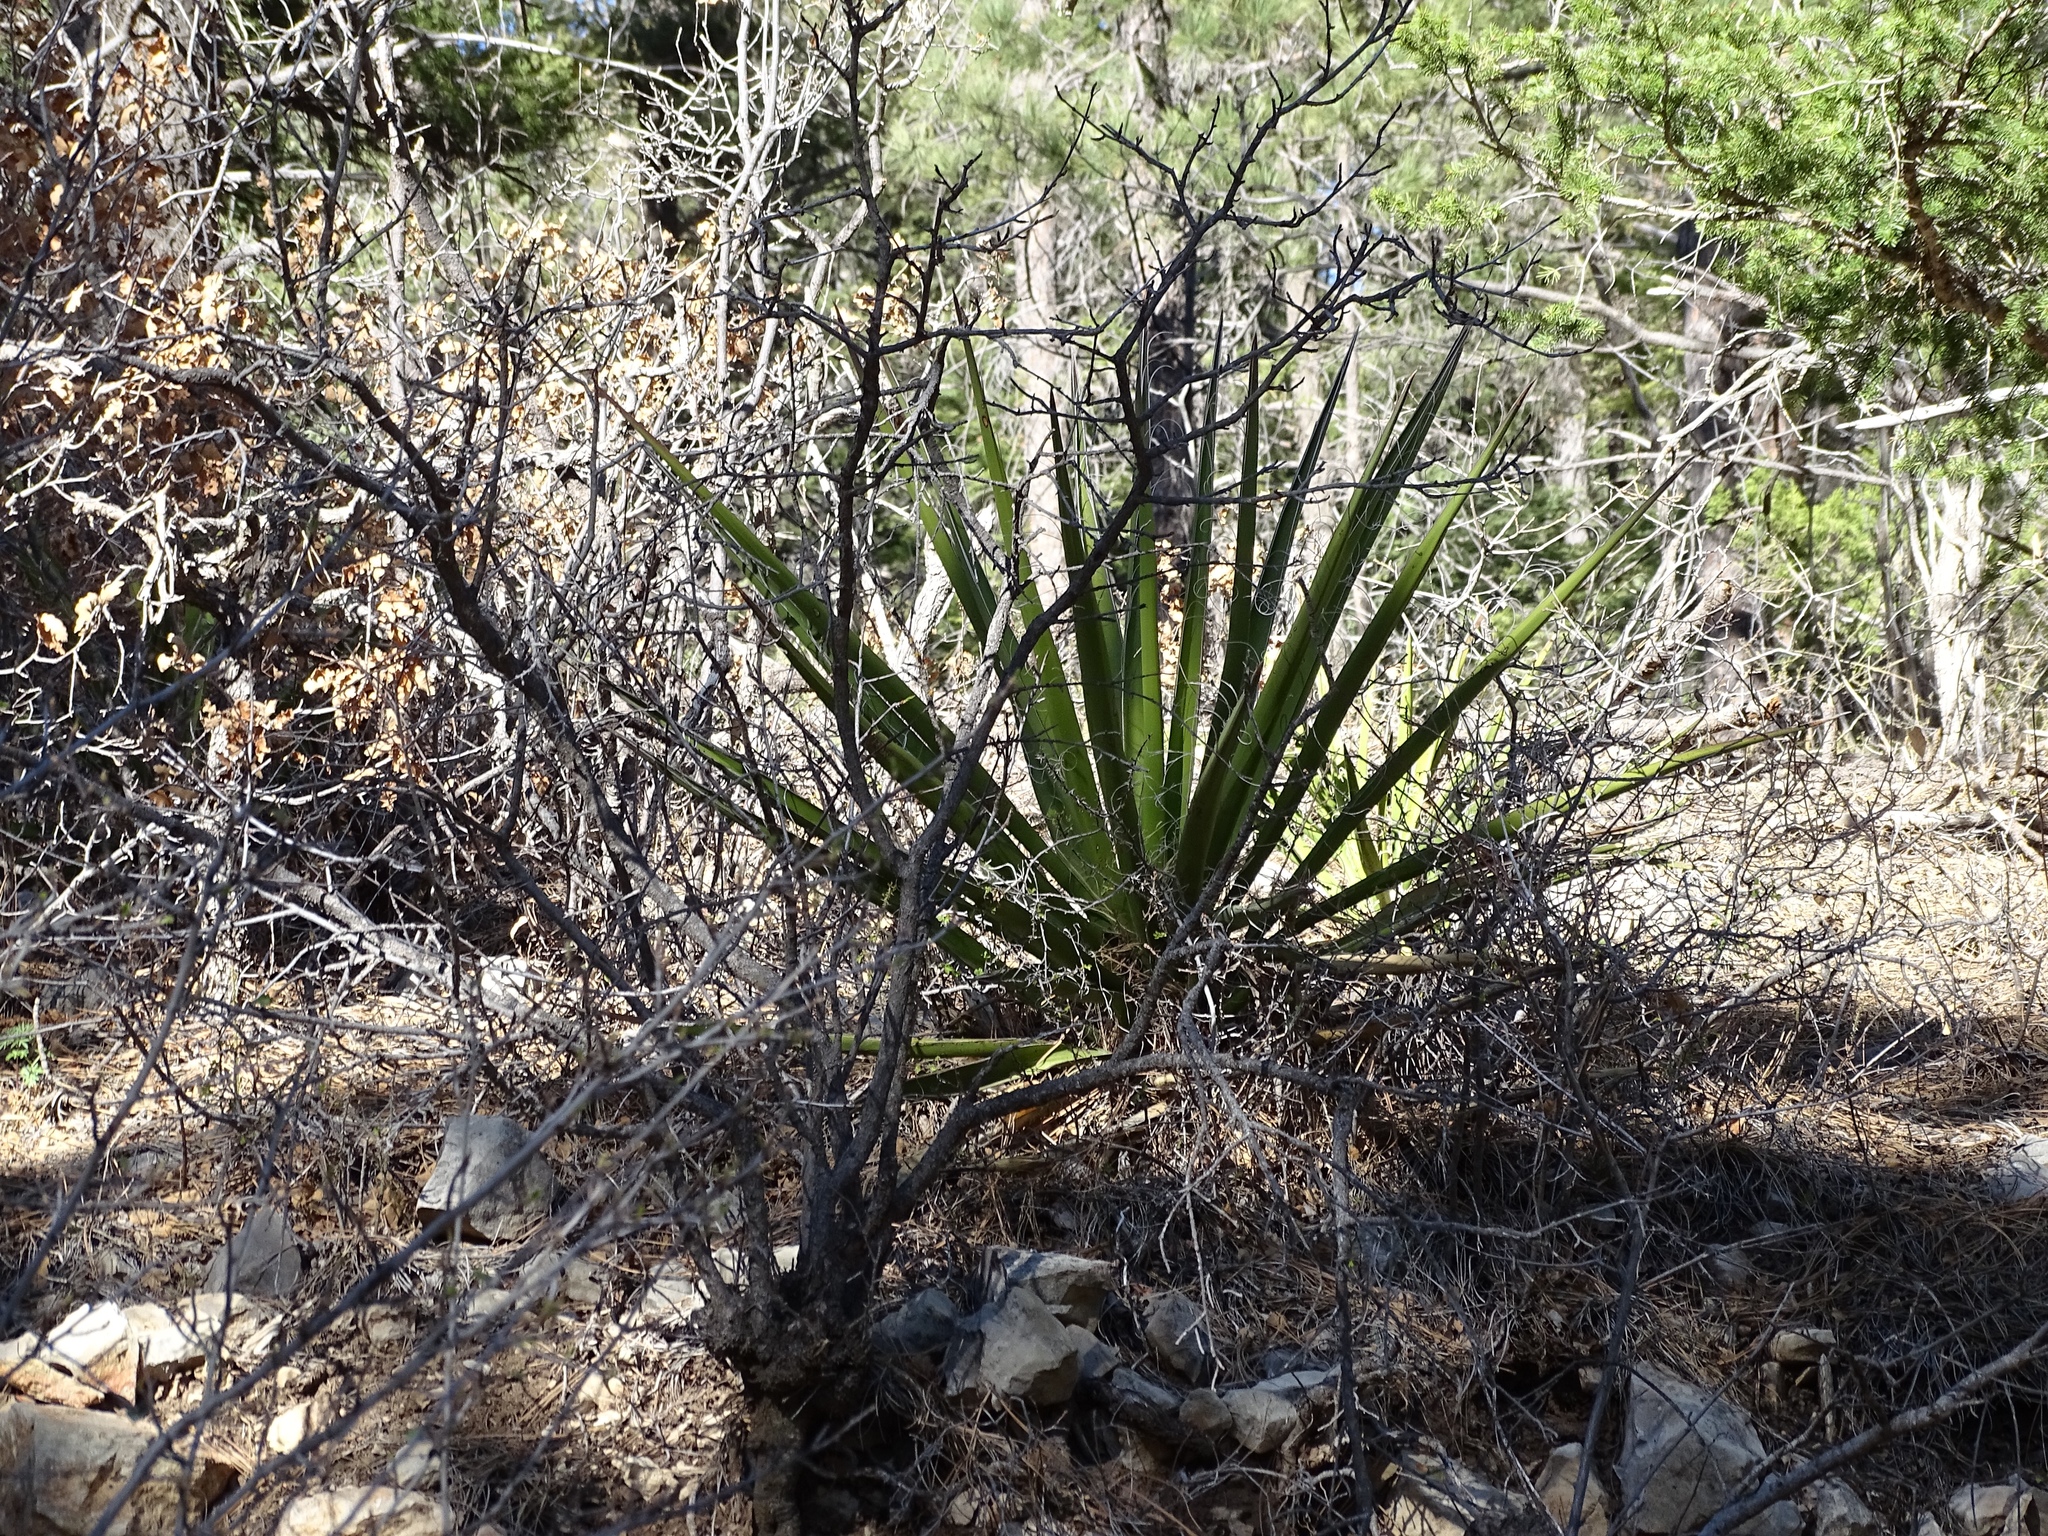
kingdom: Plantae
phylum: Tracheophyta
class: Liliopsida
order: Asparagales
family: Asparagaceae
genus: Yucca
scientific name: Yucca baccata
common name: Banana yucca
